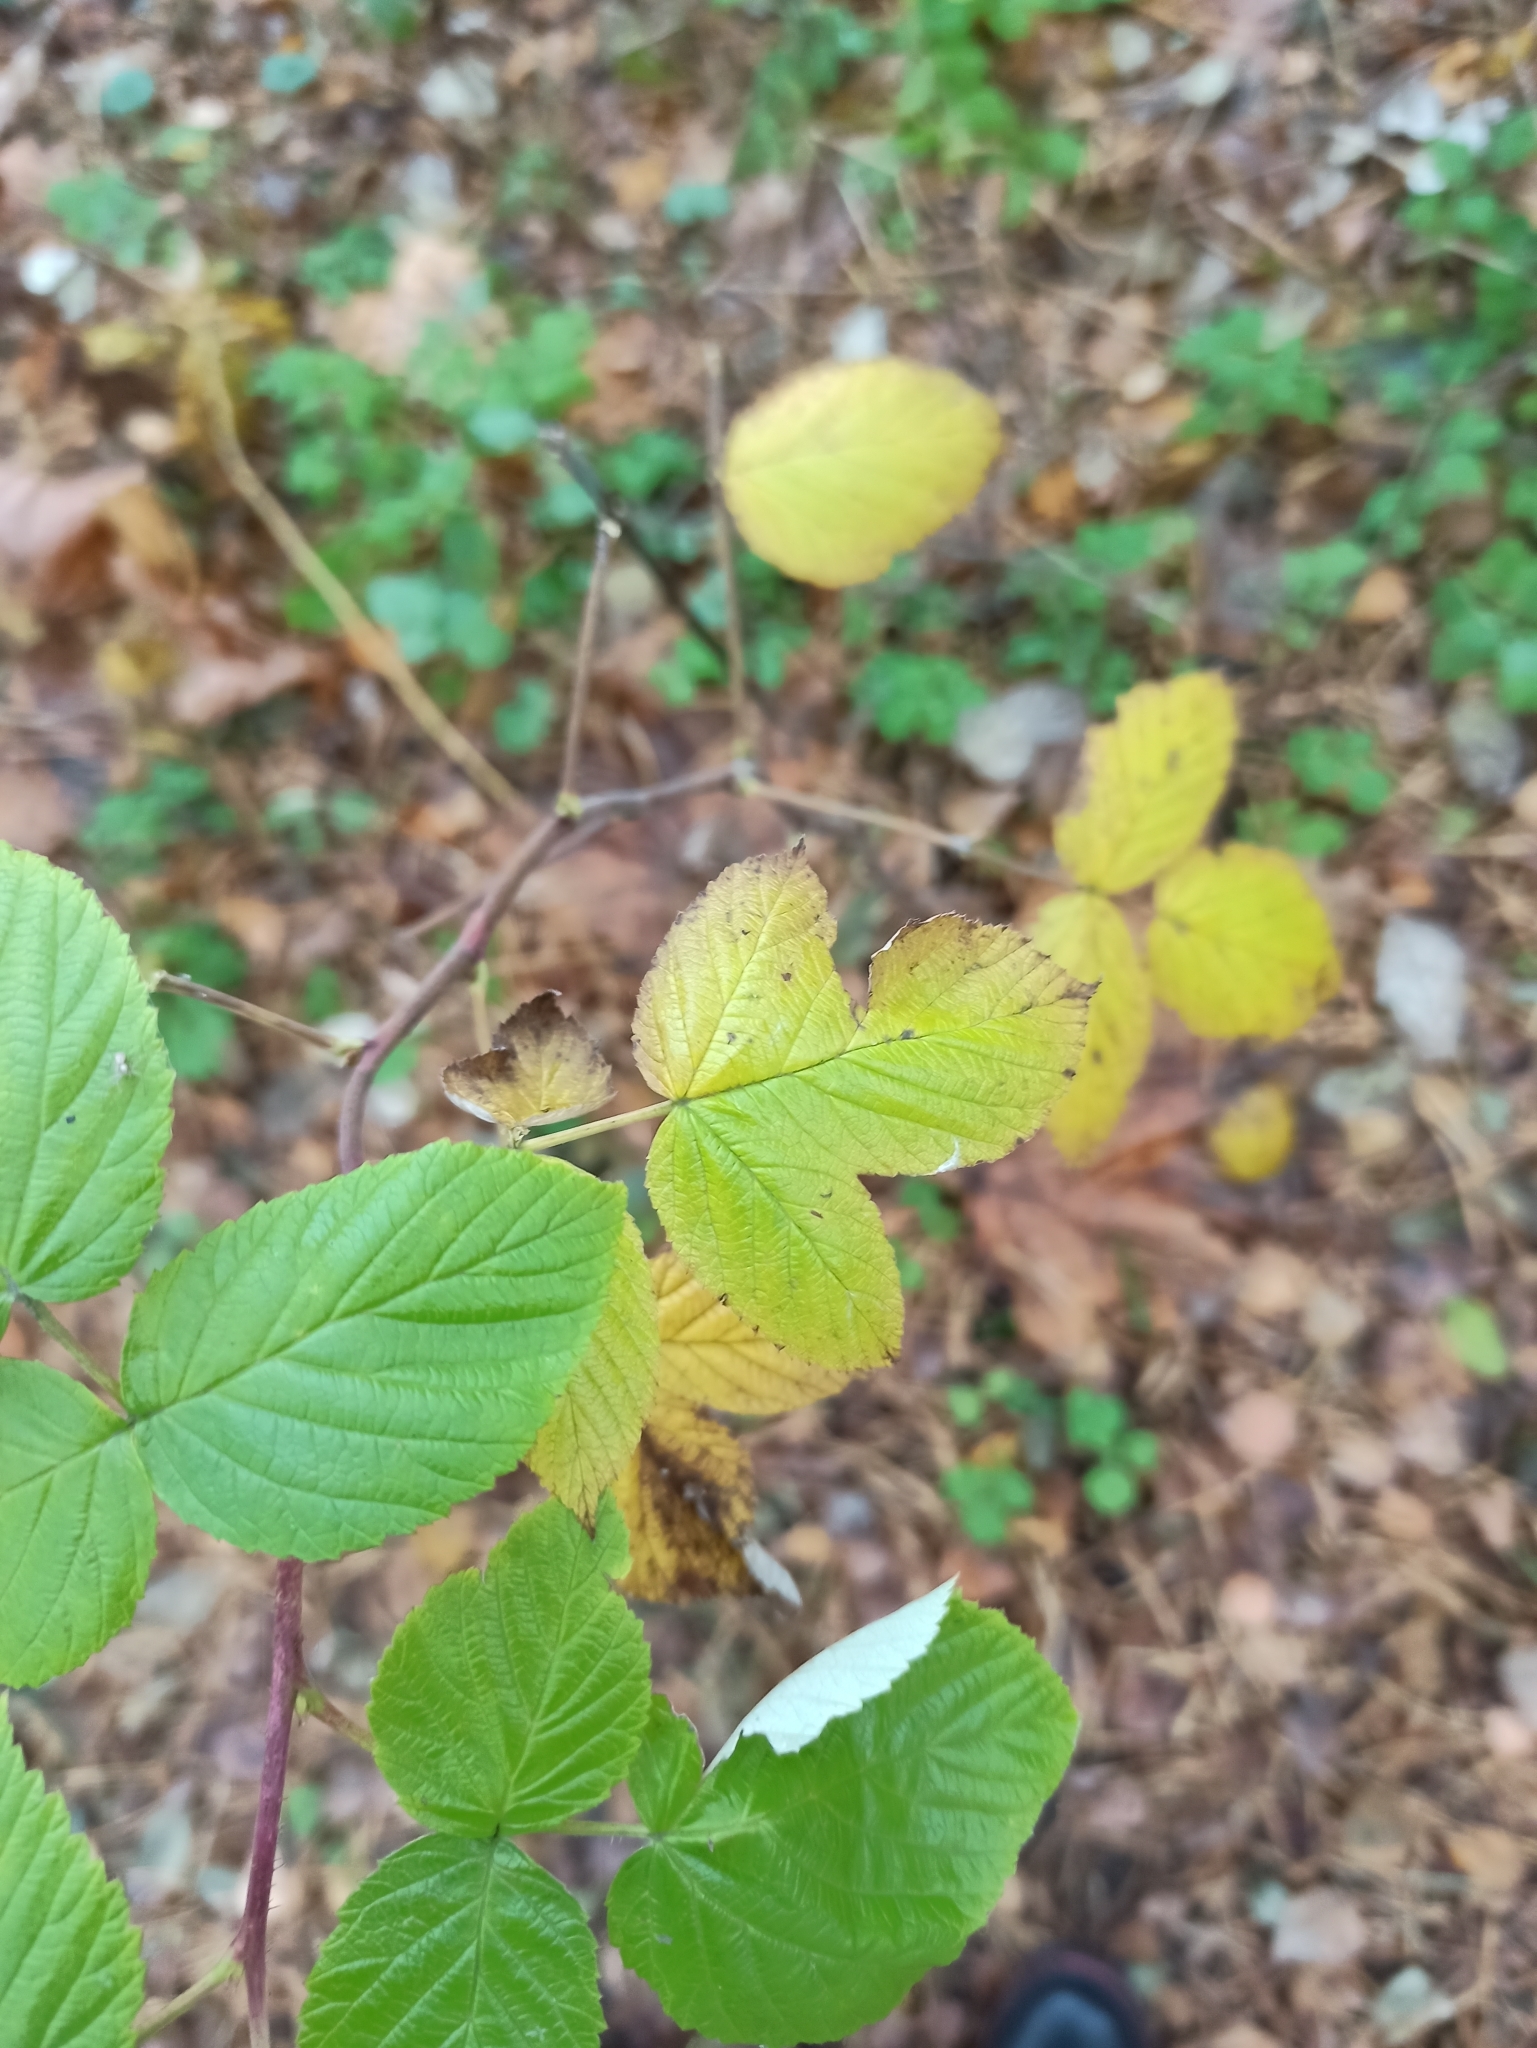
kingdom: Plantae
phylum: Tracheophyta
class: Magnoliopsida
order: Rosales
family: Rosaceae
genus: Rubus
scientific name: Rubus idaeus
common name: Raspberry
